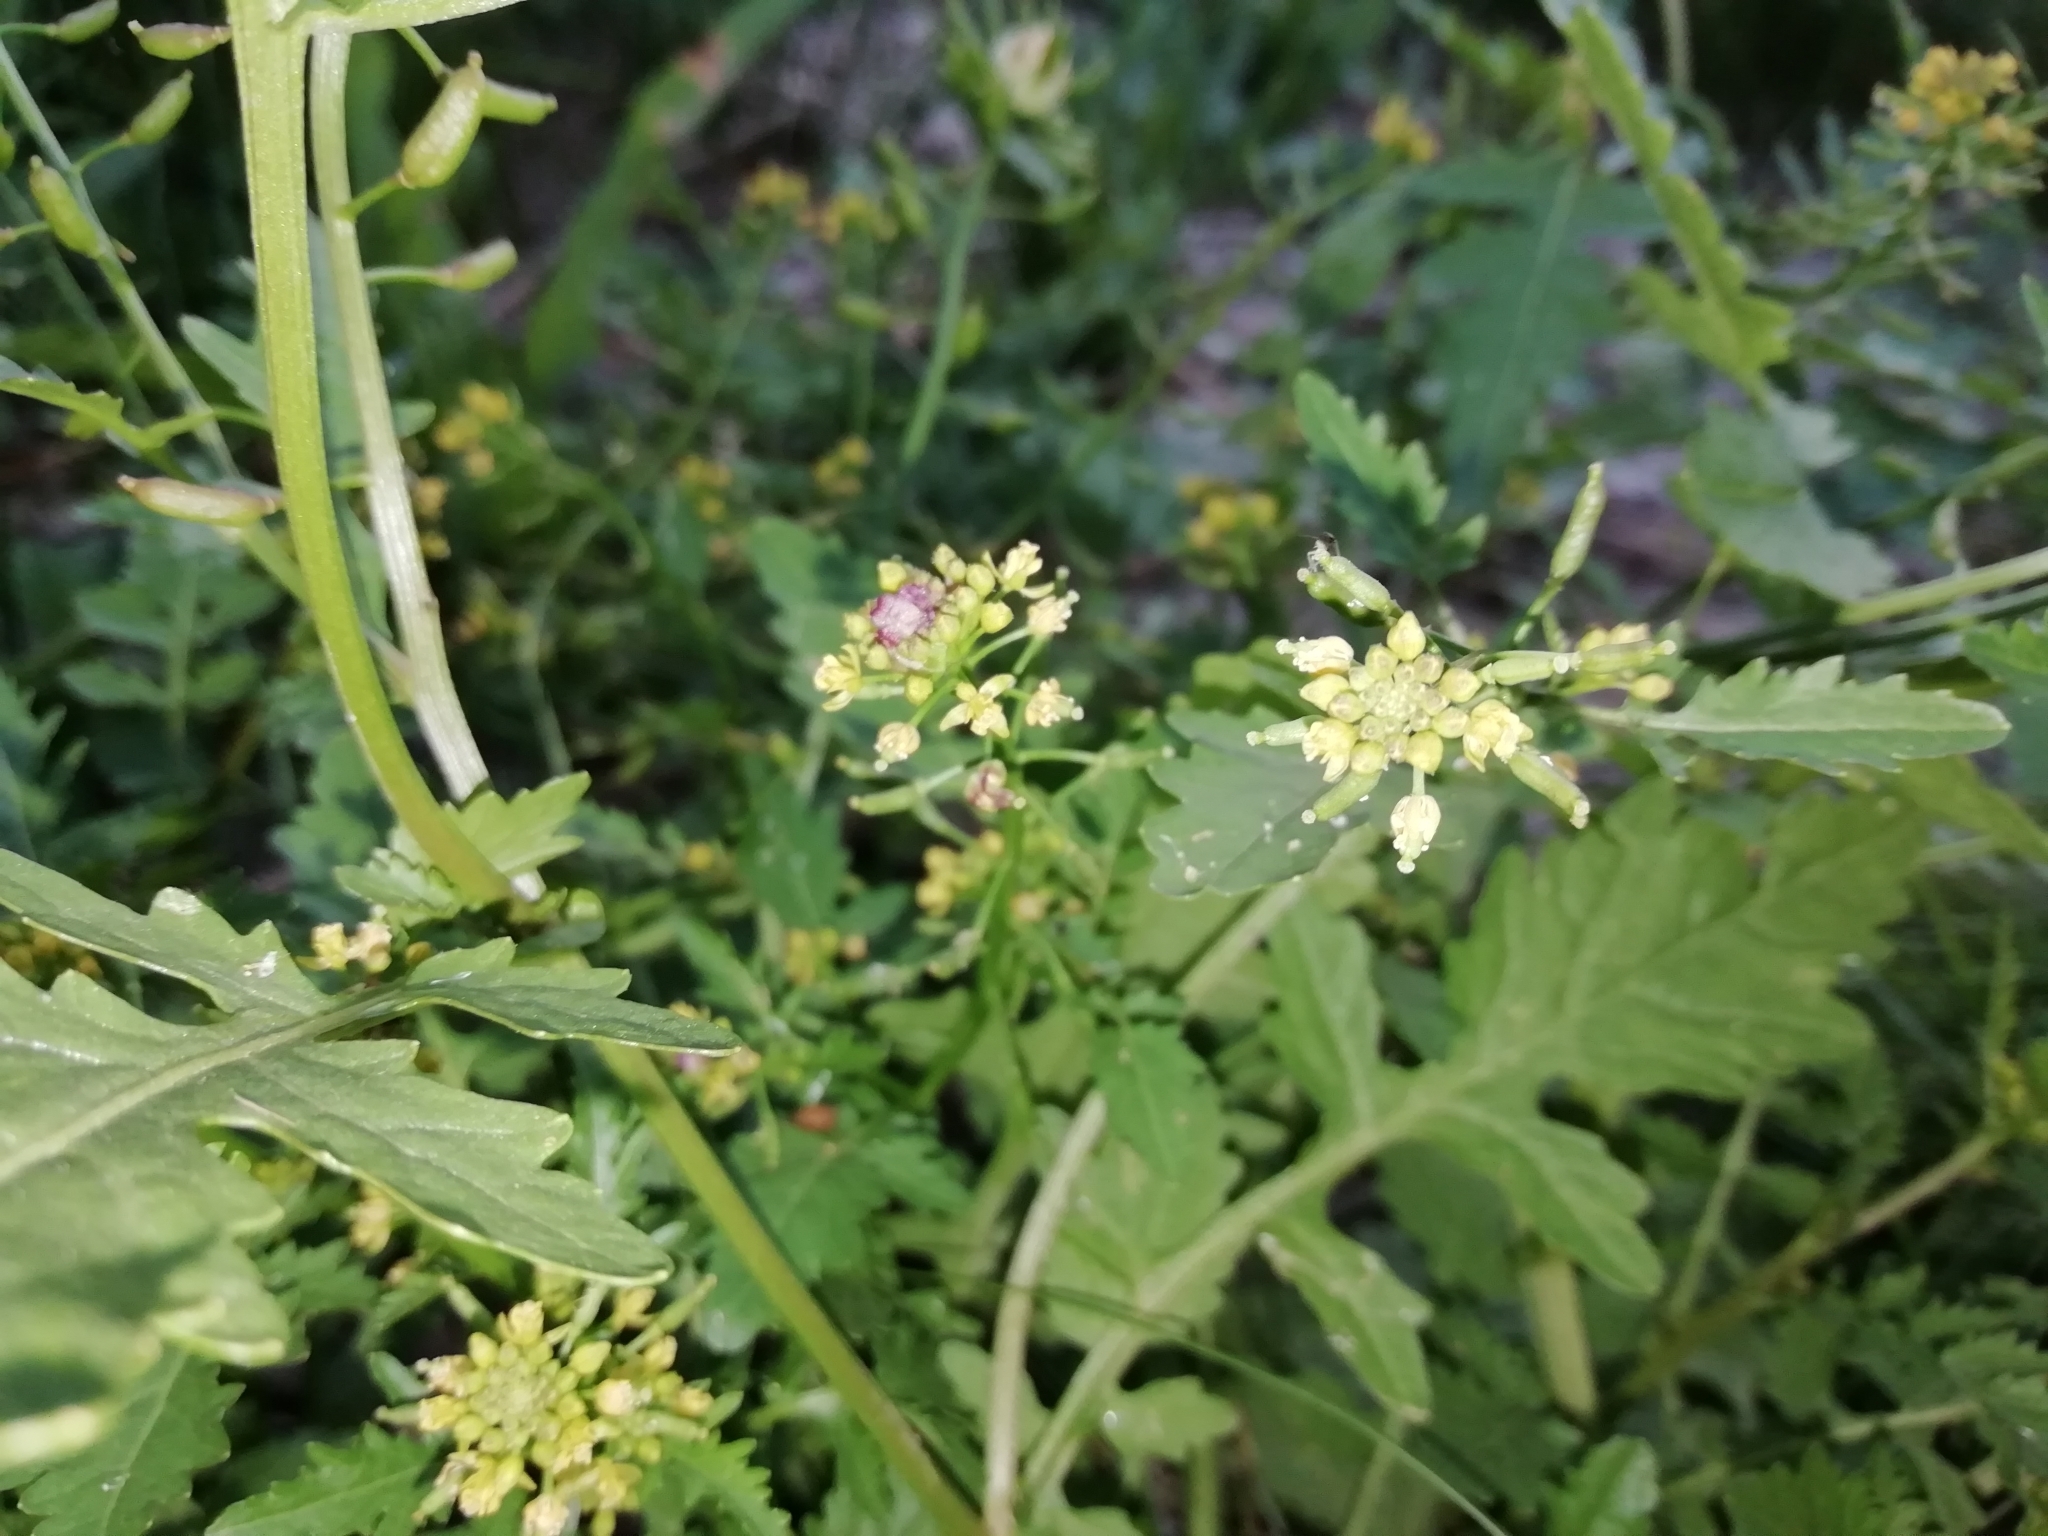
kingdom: Plantae
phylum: Tracheophyta
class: Magnoliopsida
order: Brassicales
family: Brassicaceae
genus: Rorippa
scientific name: Rorippa palustris
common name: Marsh yellow-cress
